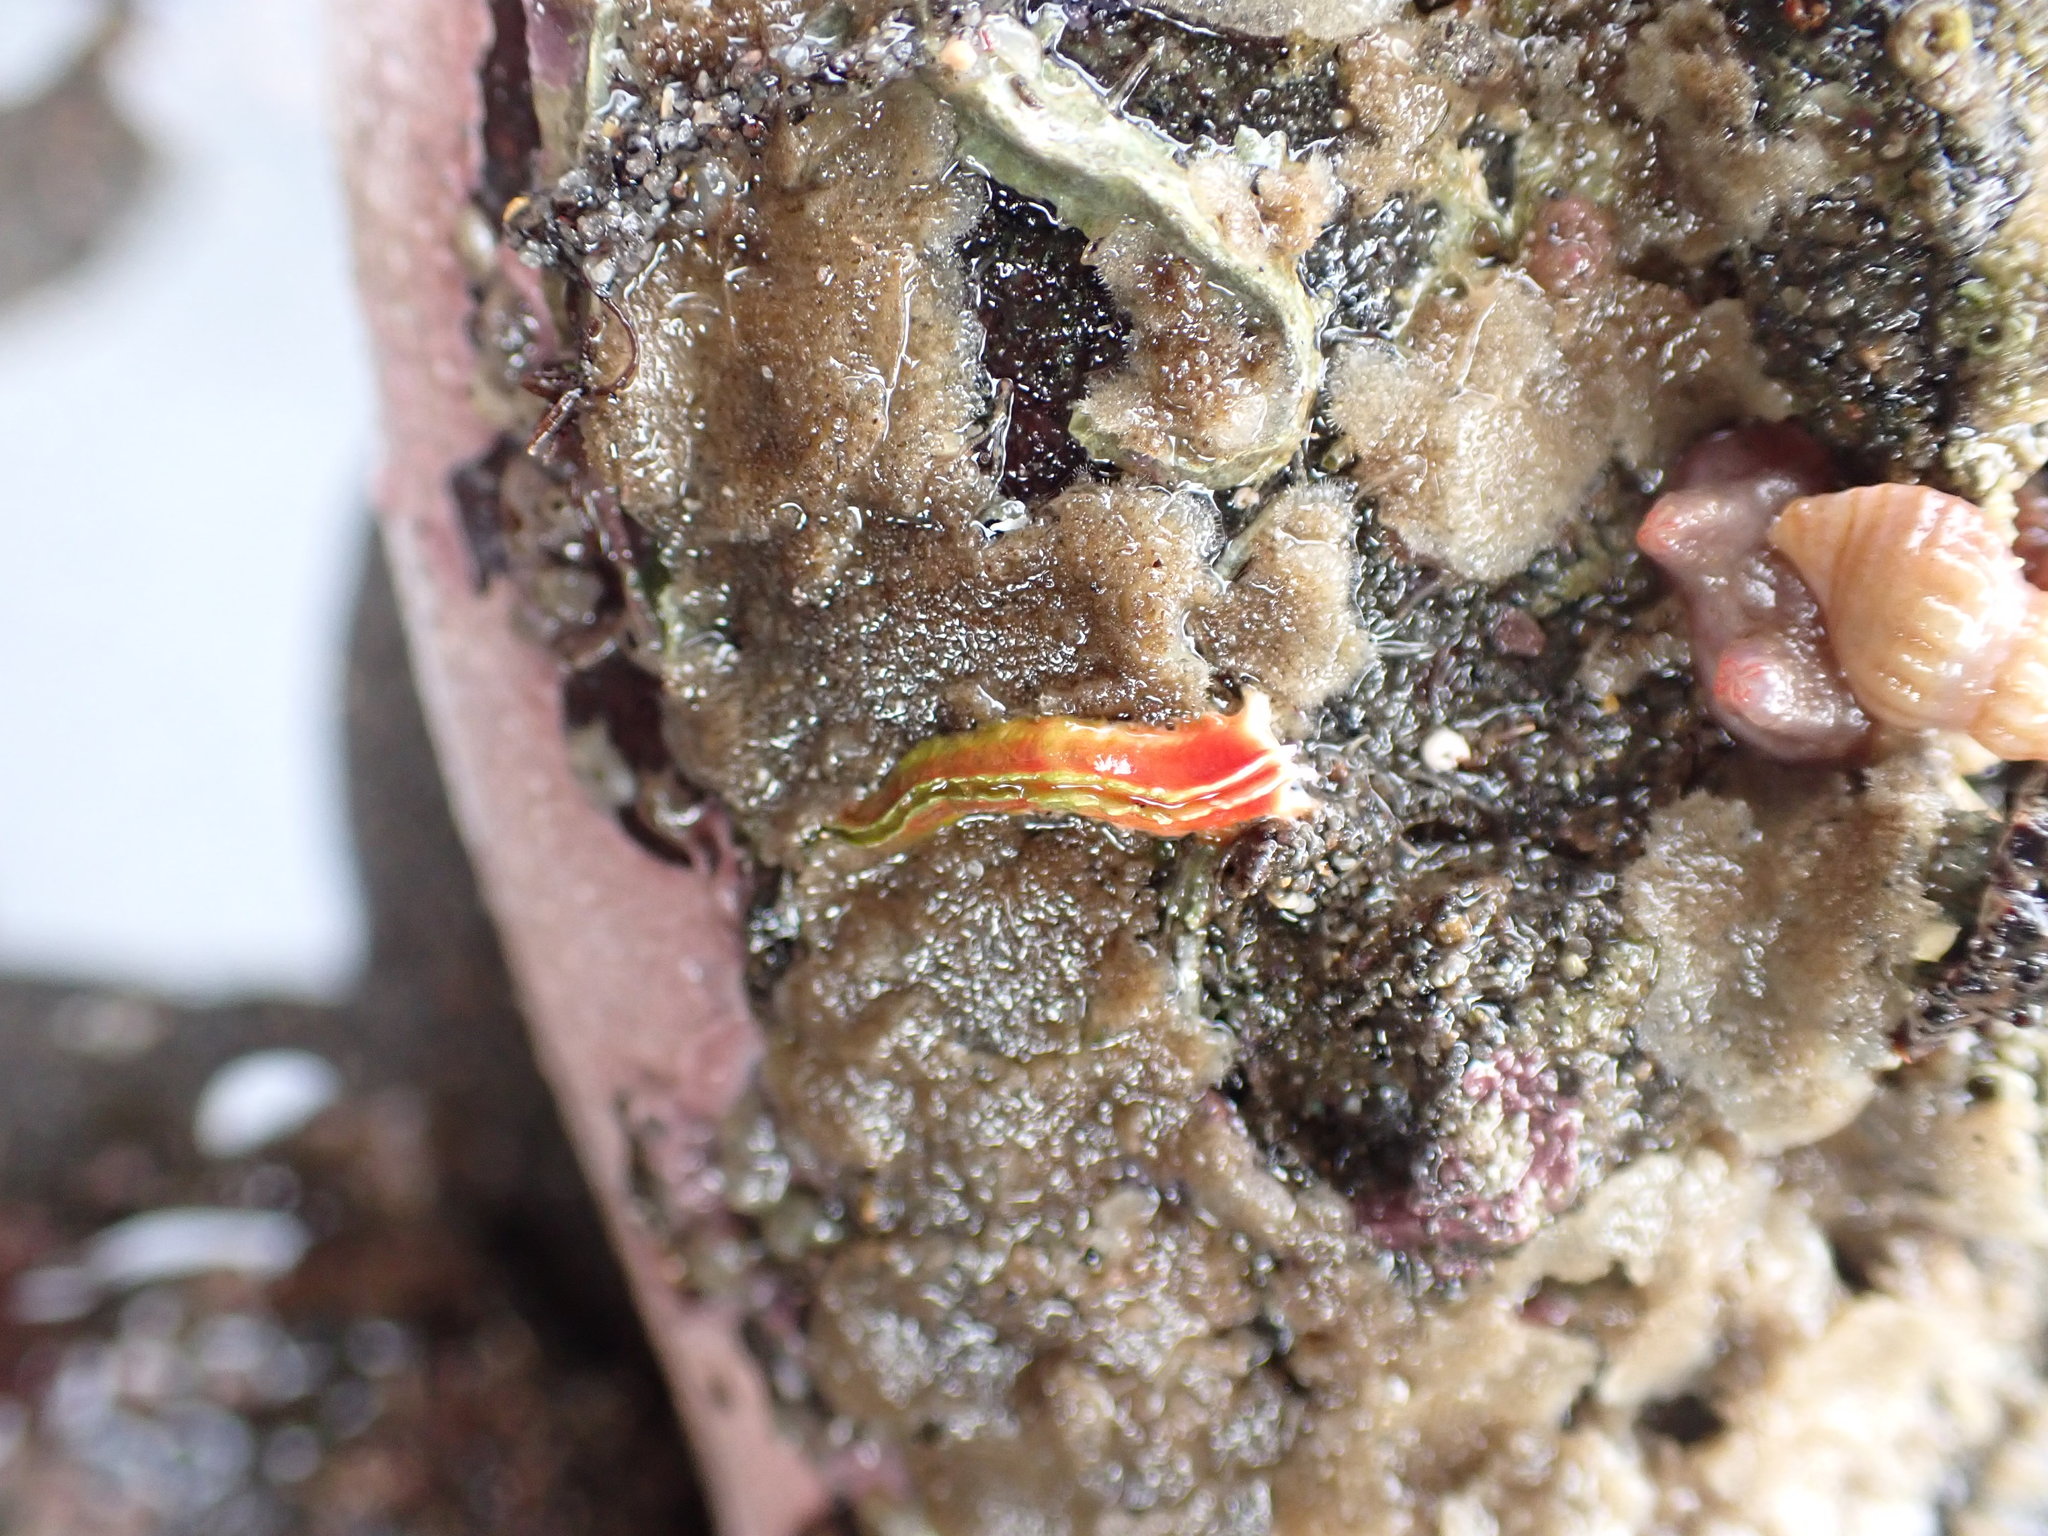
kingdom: Animalia
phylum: Annelida
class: Polychaeta
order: Sabellida
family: Serpulidae
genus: Galeolaria
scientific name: Galeolaria hystrix
